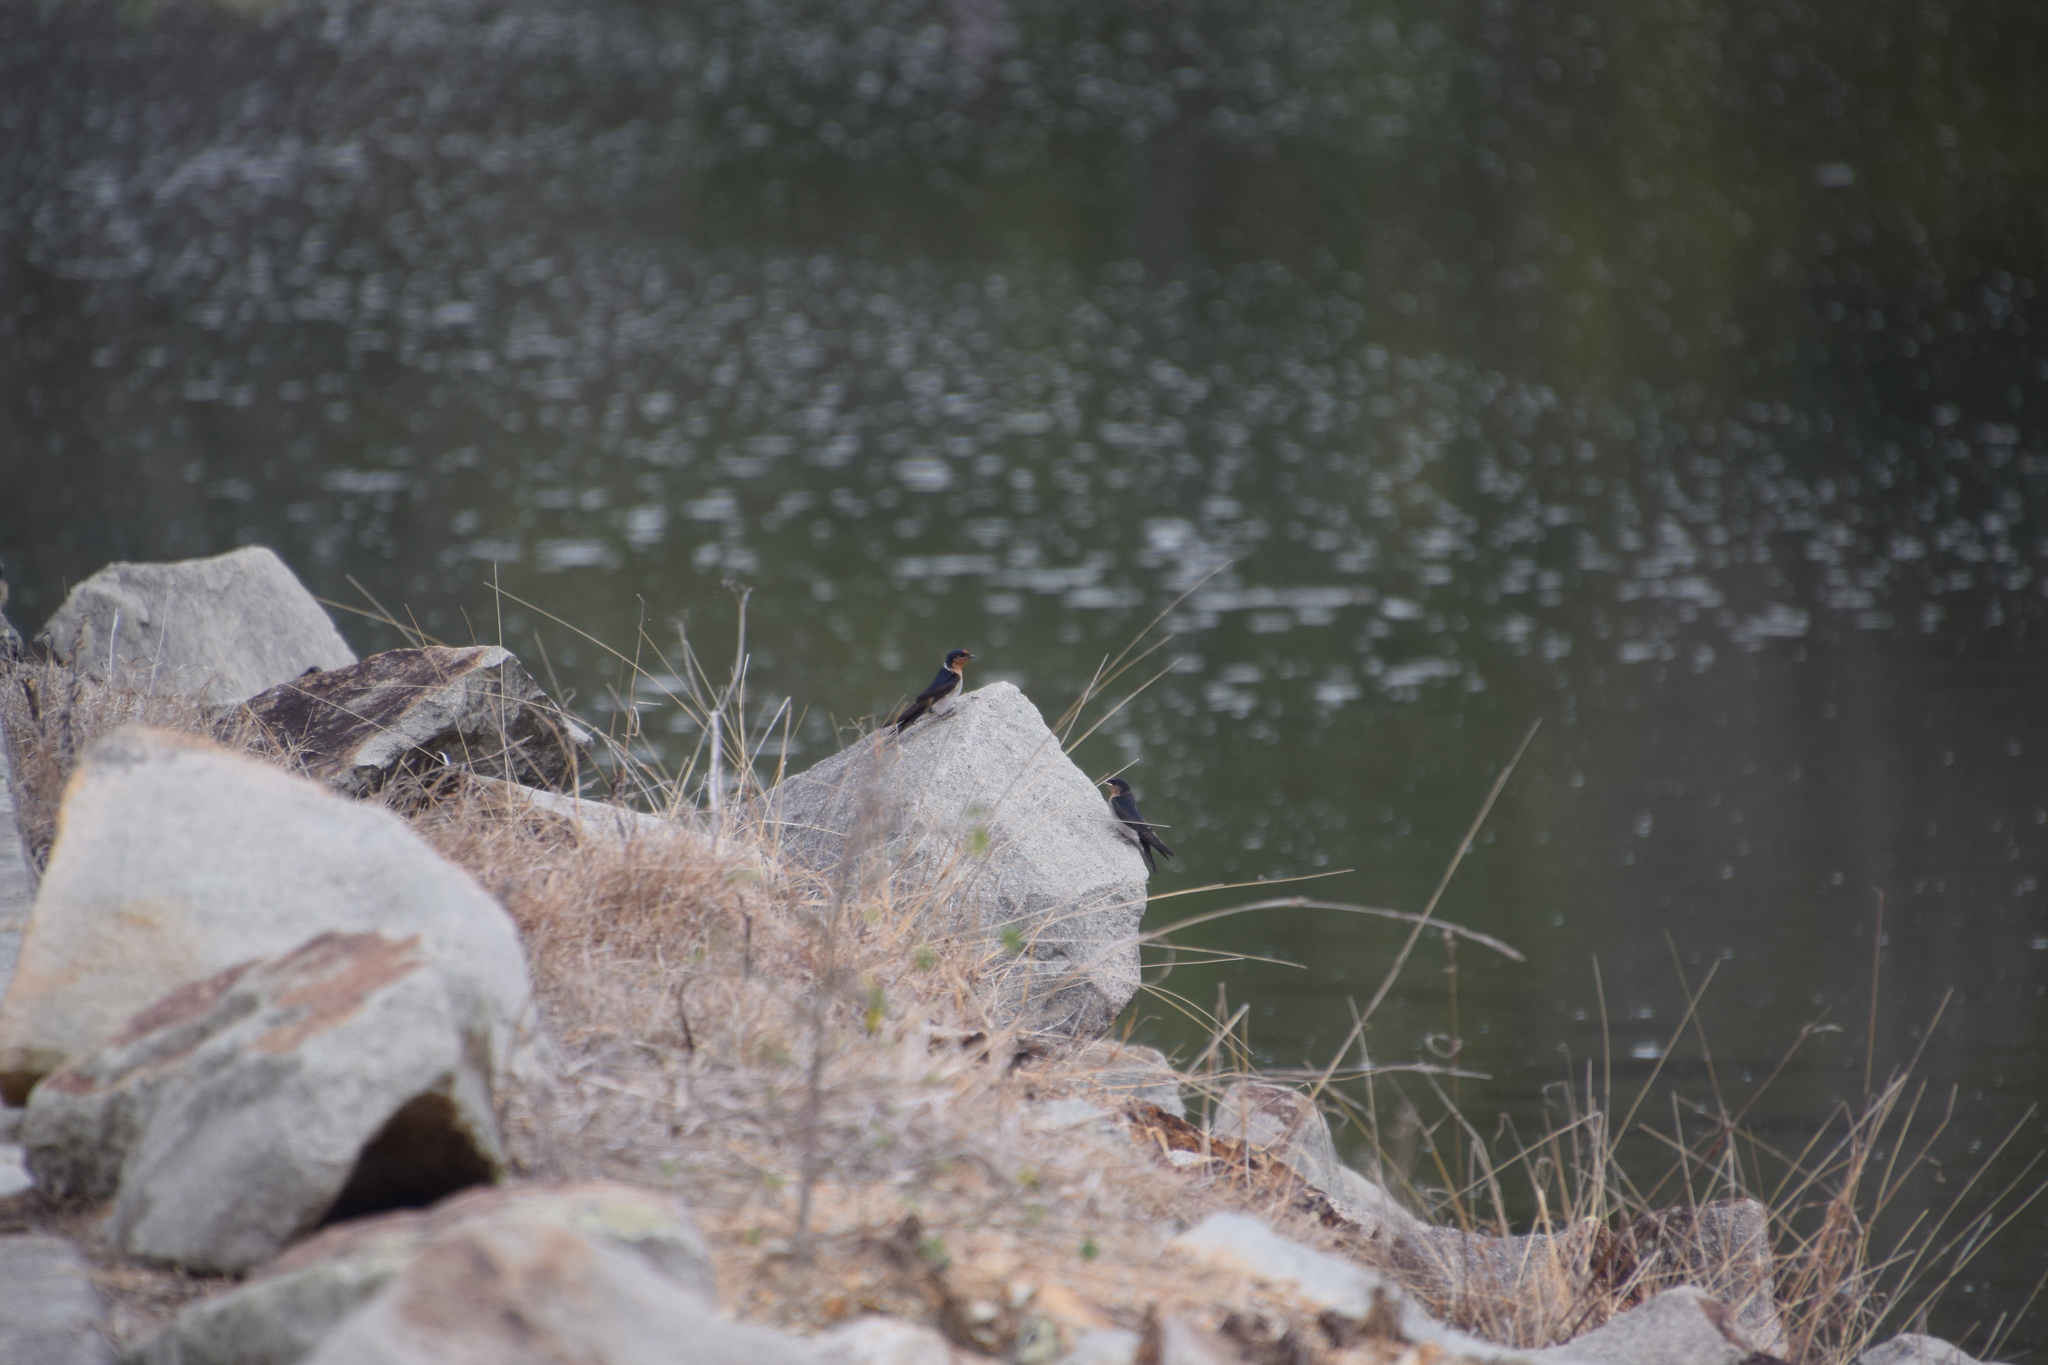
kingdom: Animalia
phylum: Chordata
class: Aves
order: Passeriformes
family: Hirundinidae
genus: Hirundo
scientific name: Hirundo neoxena
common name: Welcome swallow
